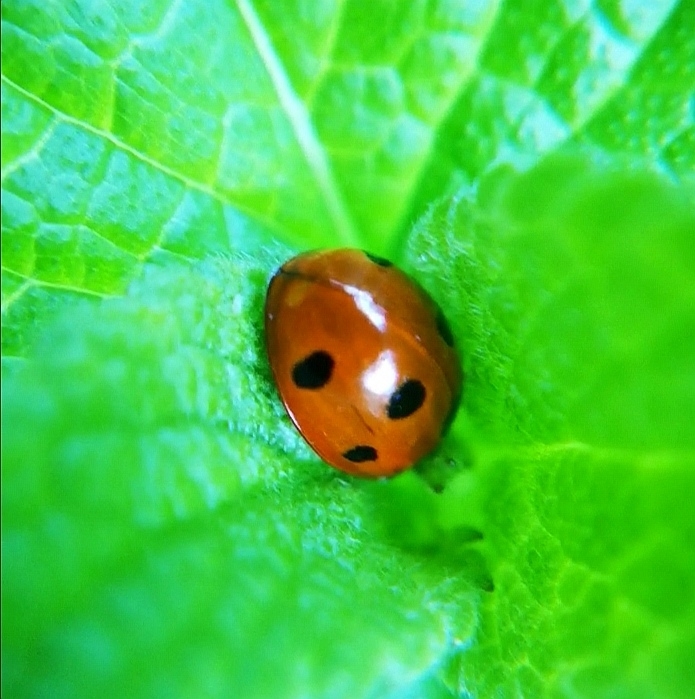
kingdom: Animalia
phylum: Arthropoda
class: Insecta
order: Coleoptera
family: Coccinellidae
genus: Coccinella
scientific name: Coccinella septempunctata
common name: Sevenspotted lady beetle
